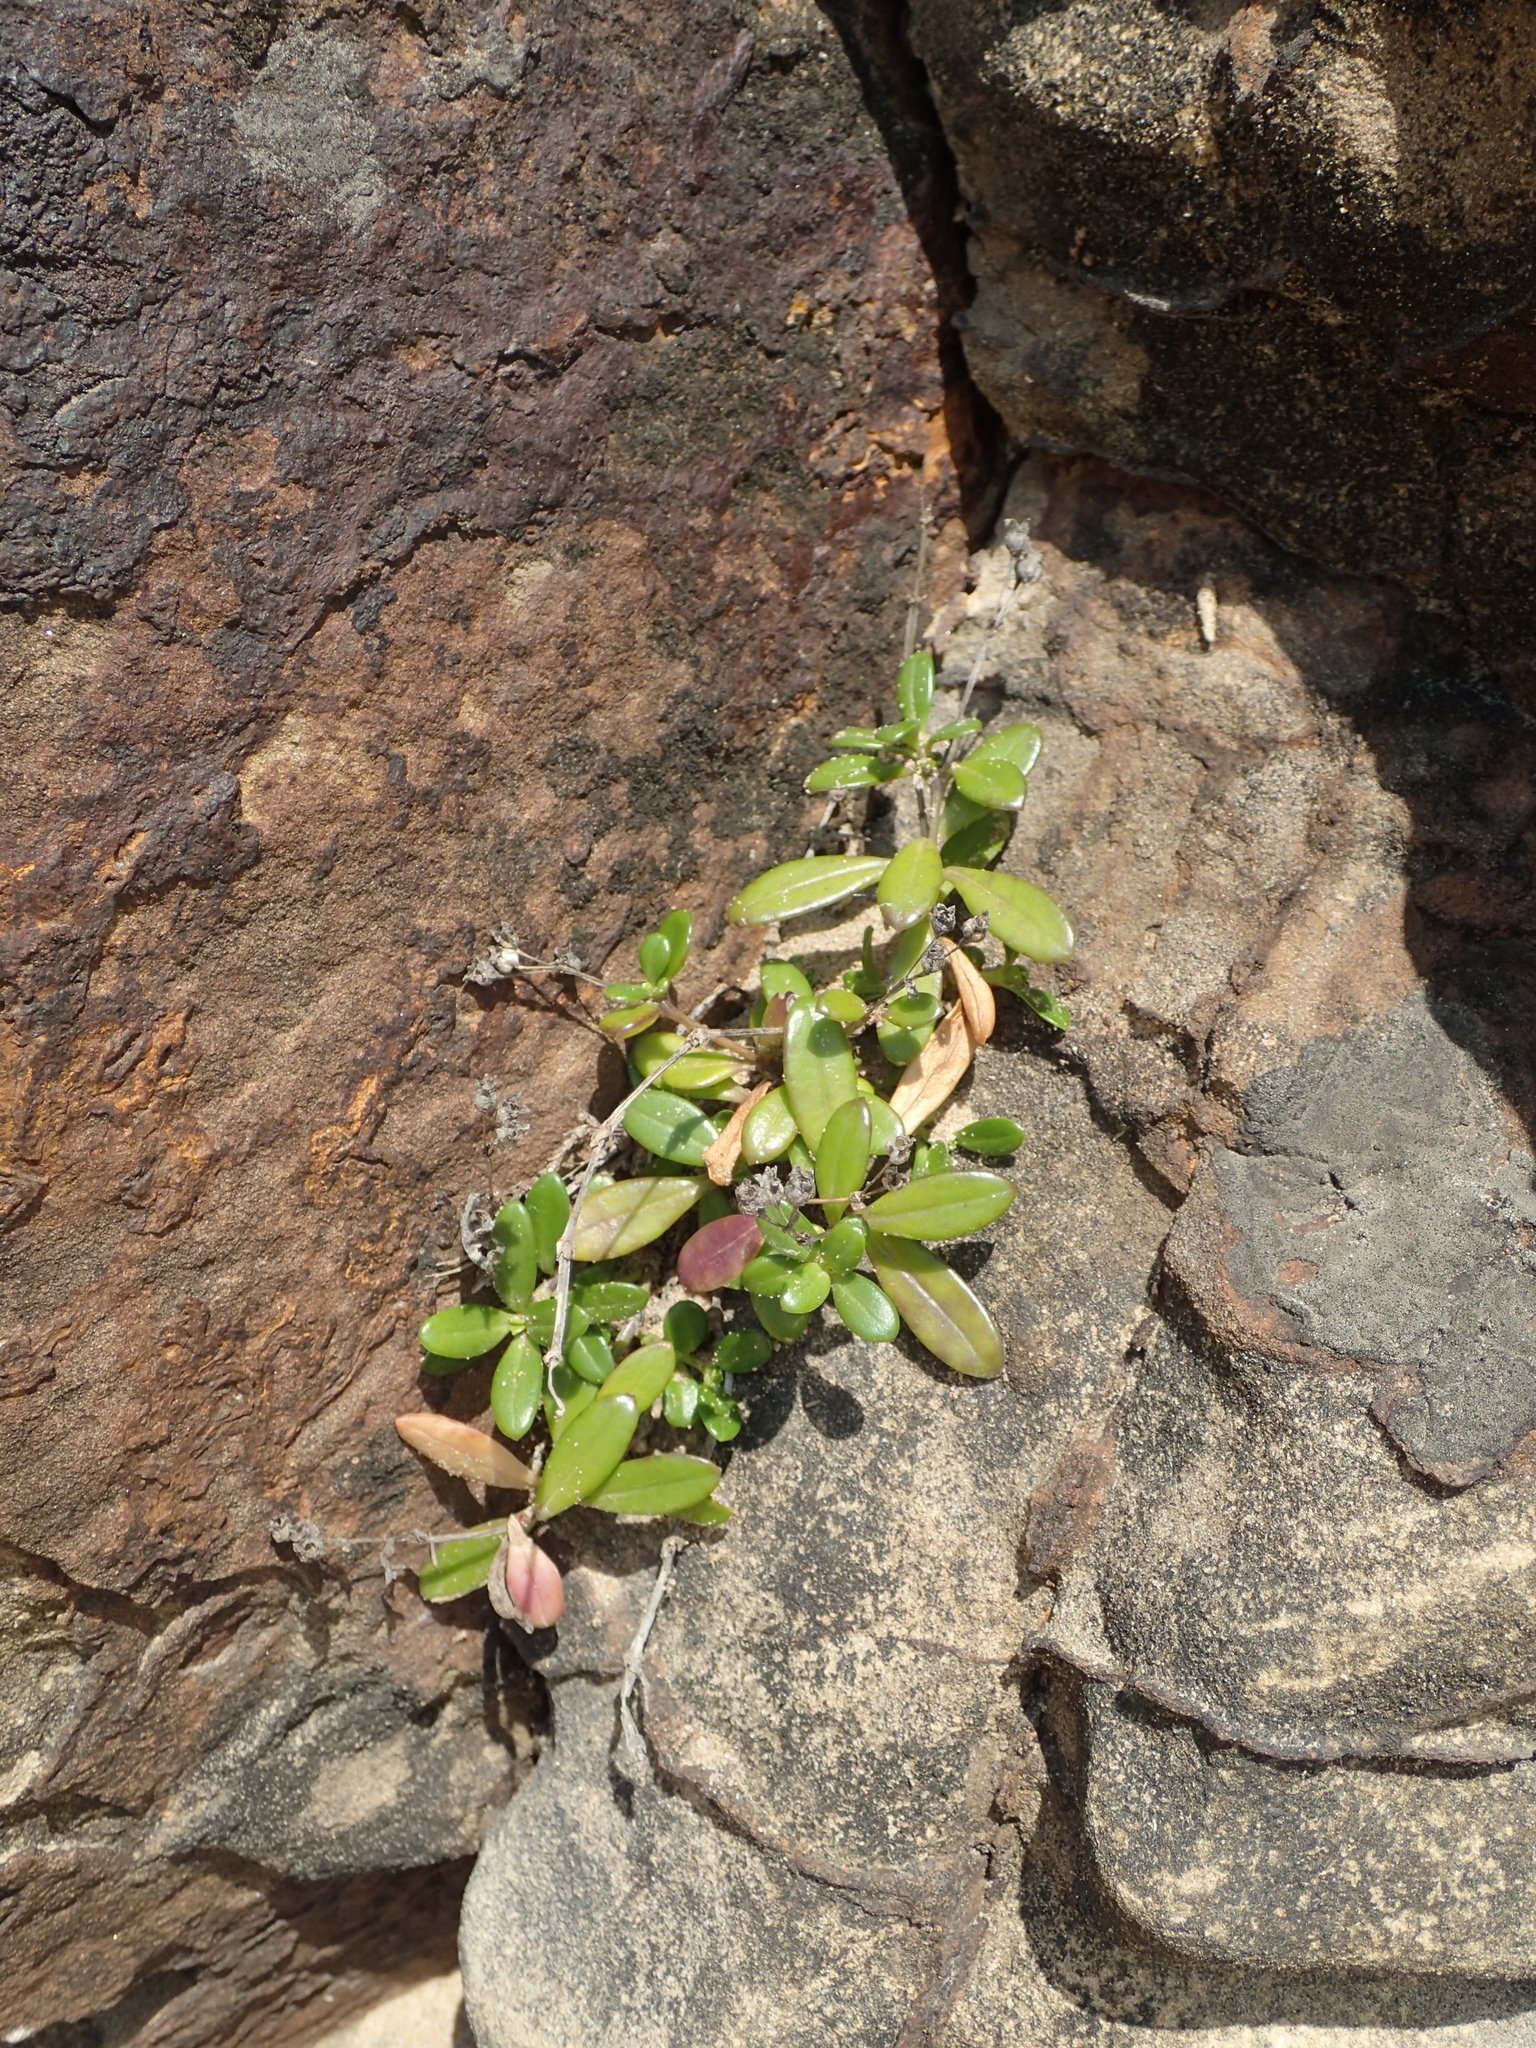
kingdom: Plantae
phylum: Tracheophyta
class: Magnoliopsida
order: Gentianales
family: Rubiaceae
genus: Leptopetalum
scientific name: Leptopetalum strigulosum
